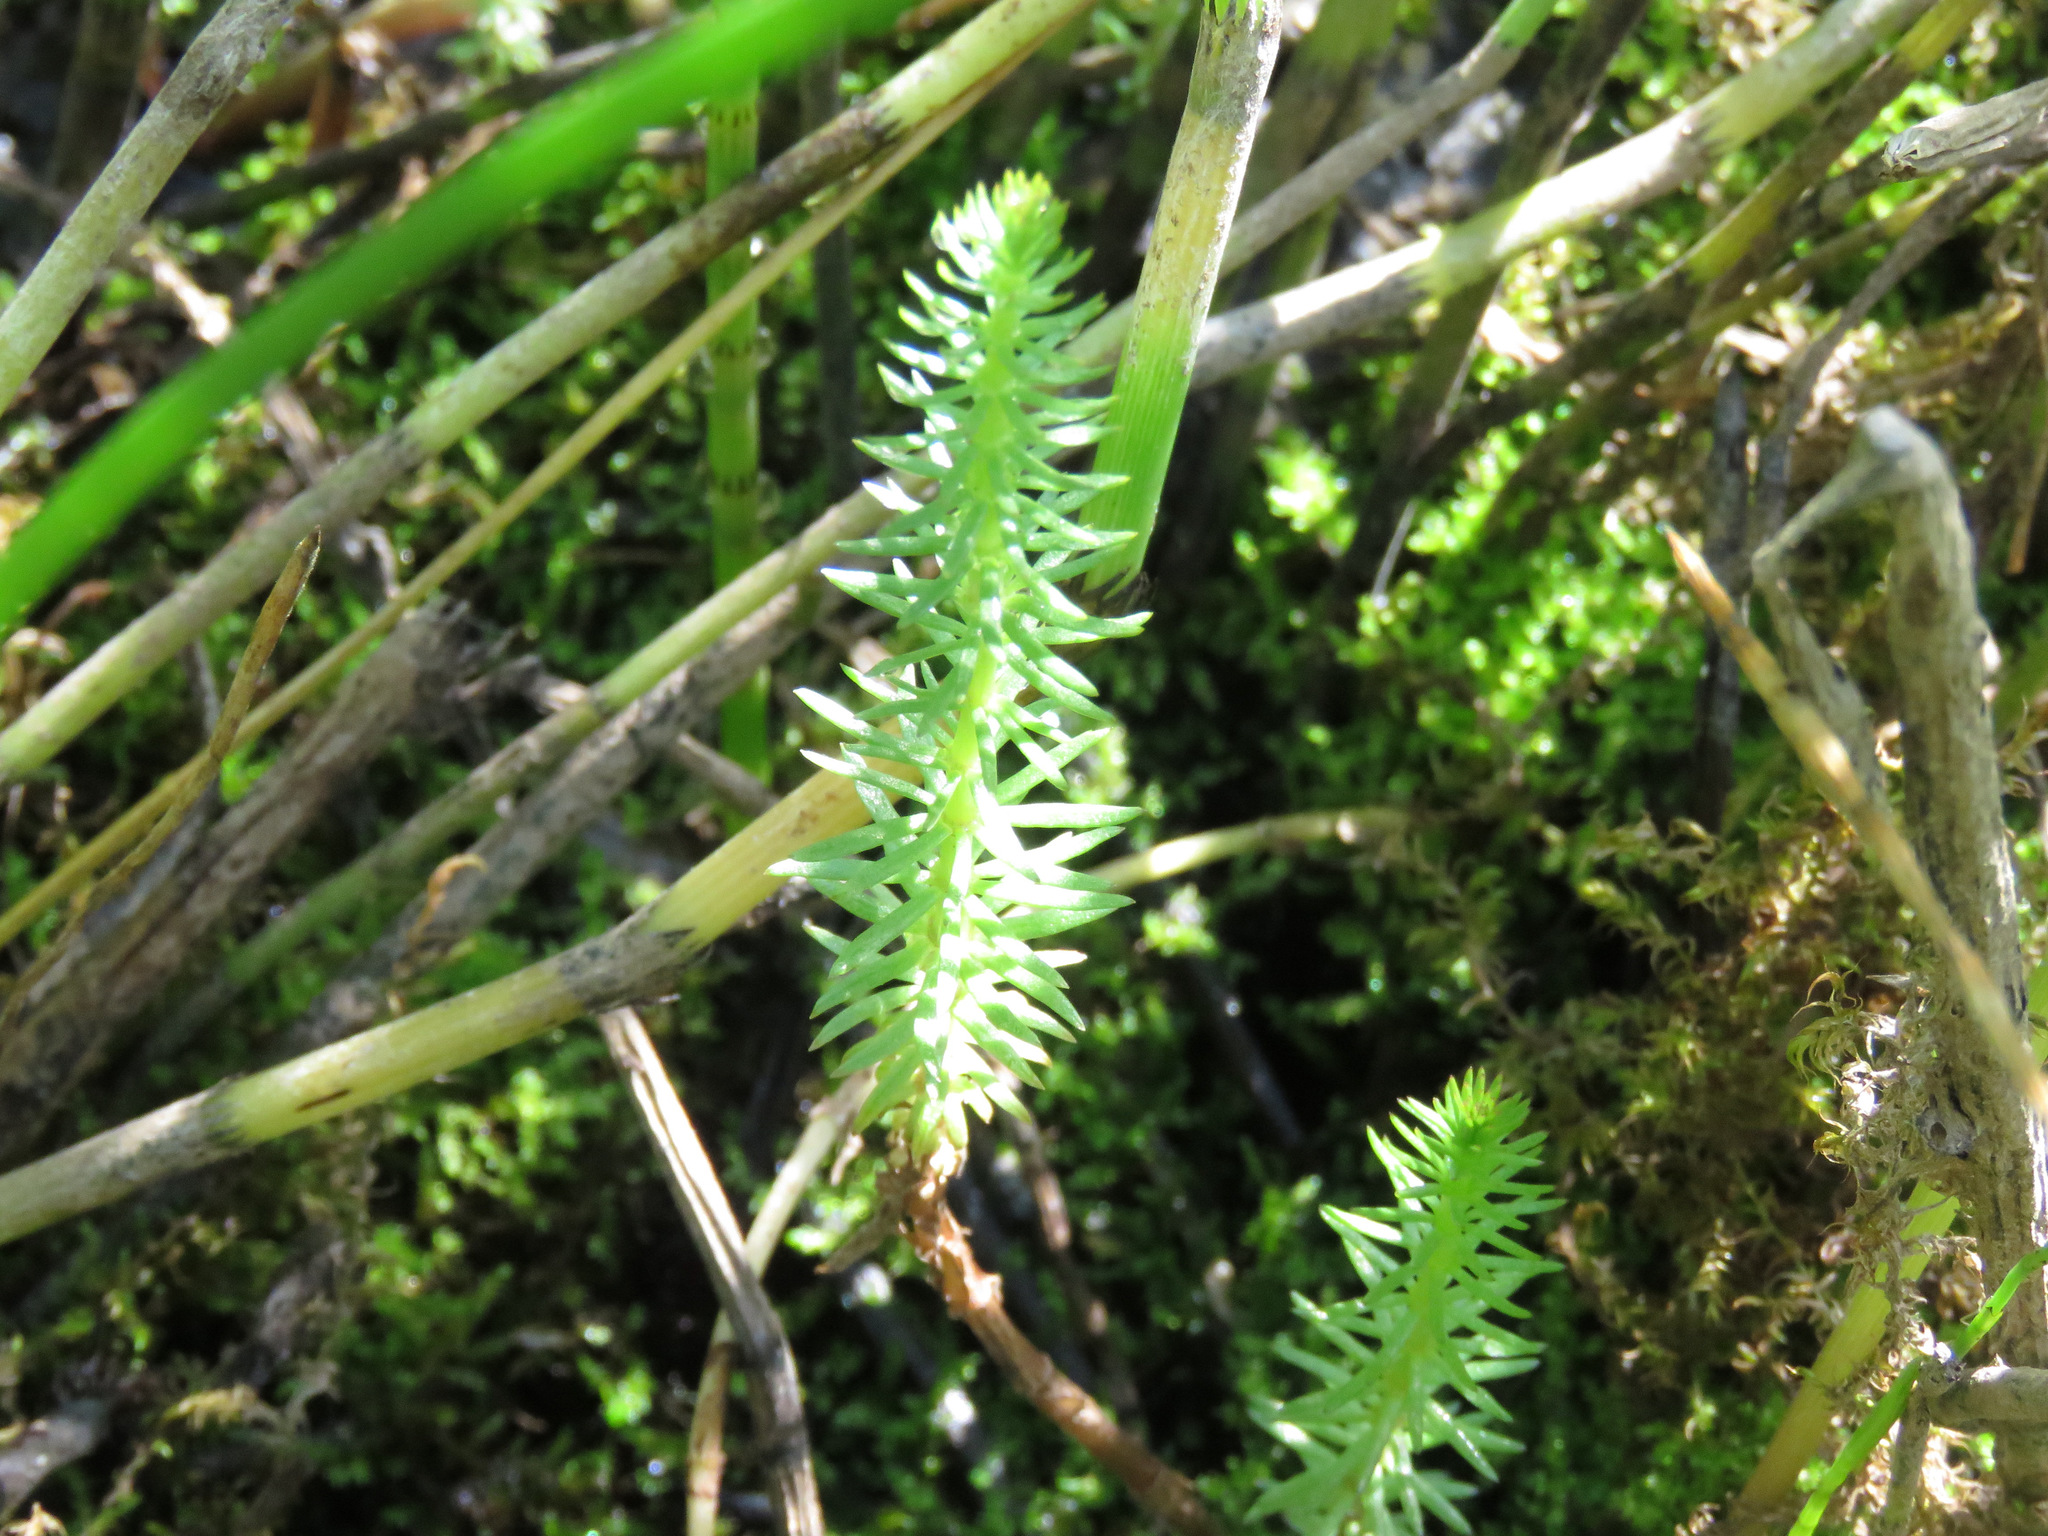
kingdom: Plantae
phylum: Tracheophyta
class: Magnoliopsida
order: Lamiales
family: Plantaginaceae
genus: Hippuris
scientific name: Hippuris vulgaris
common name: Mare's-tail
